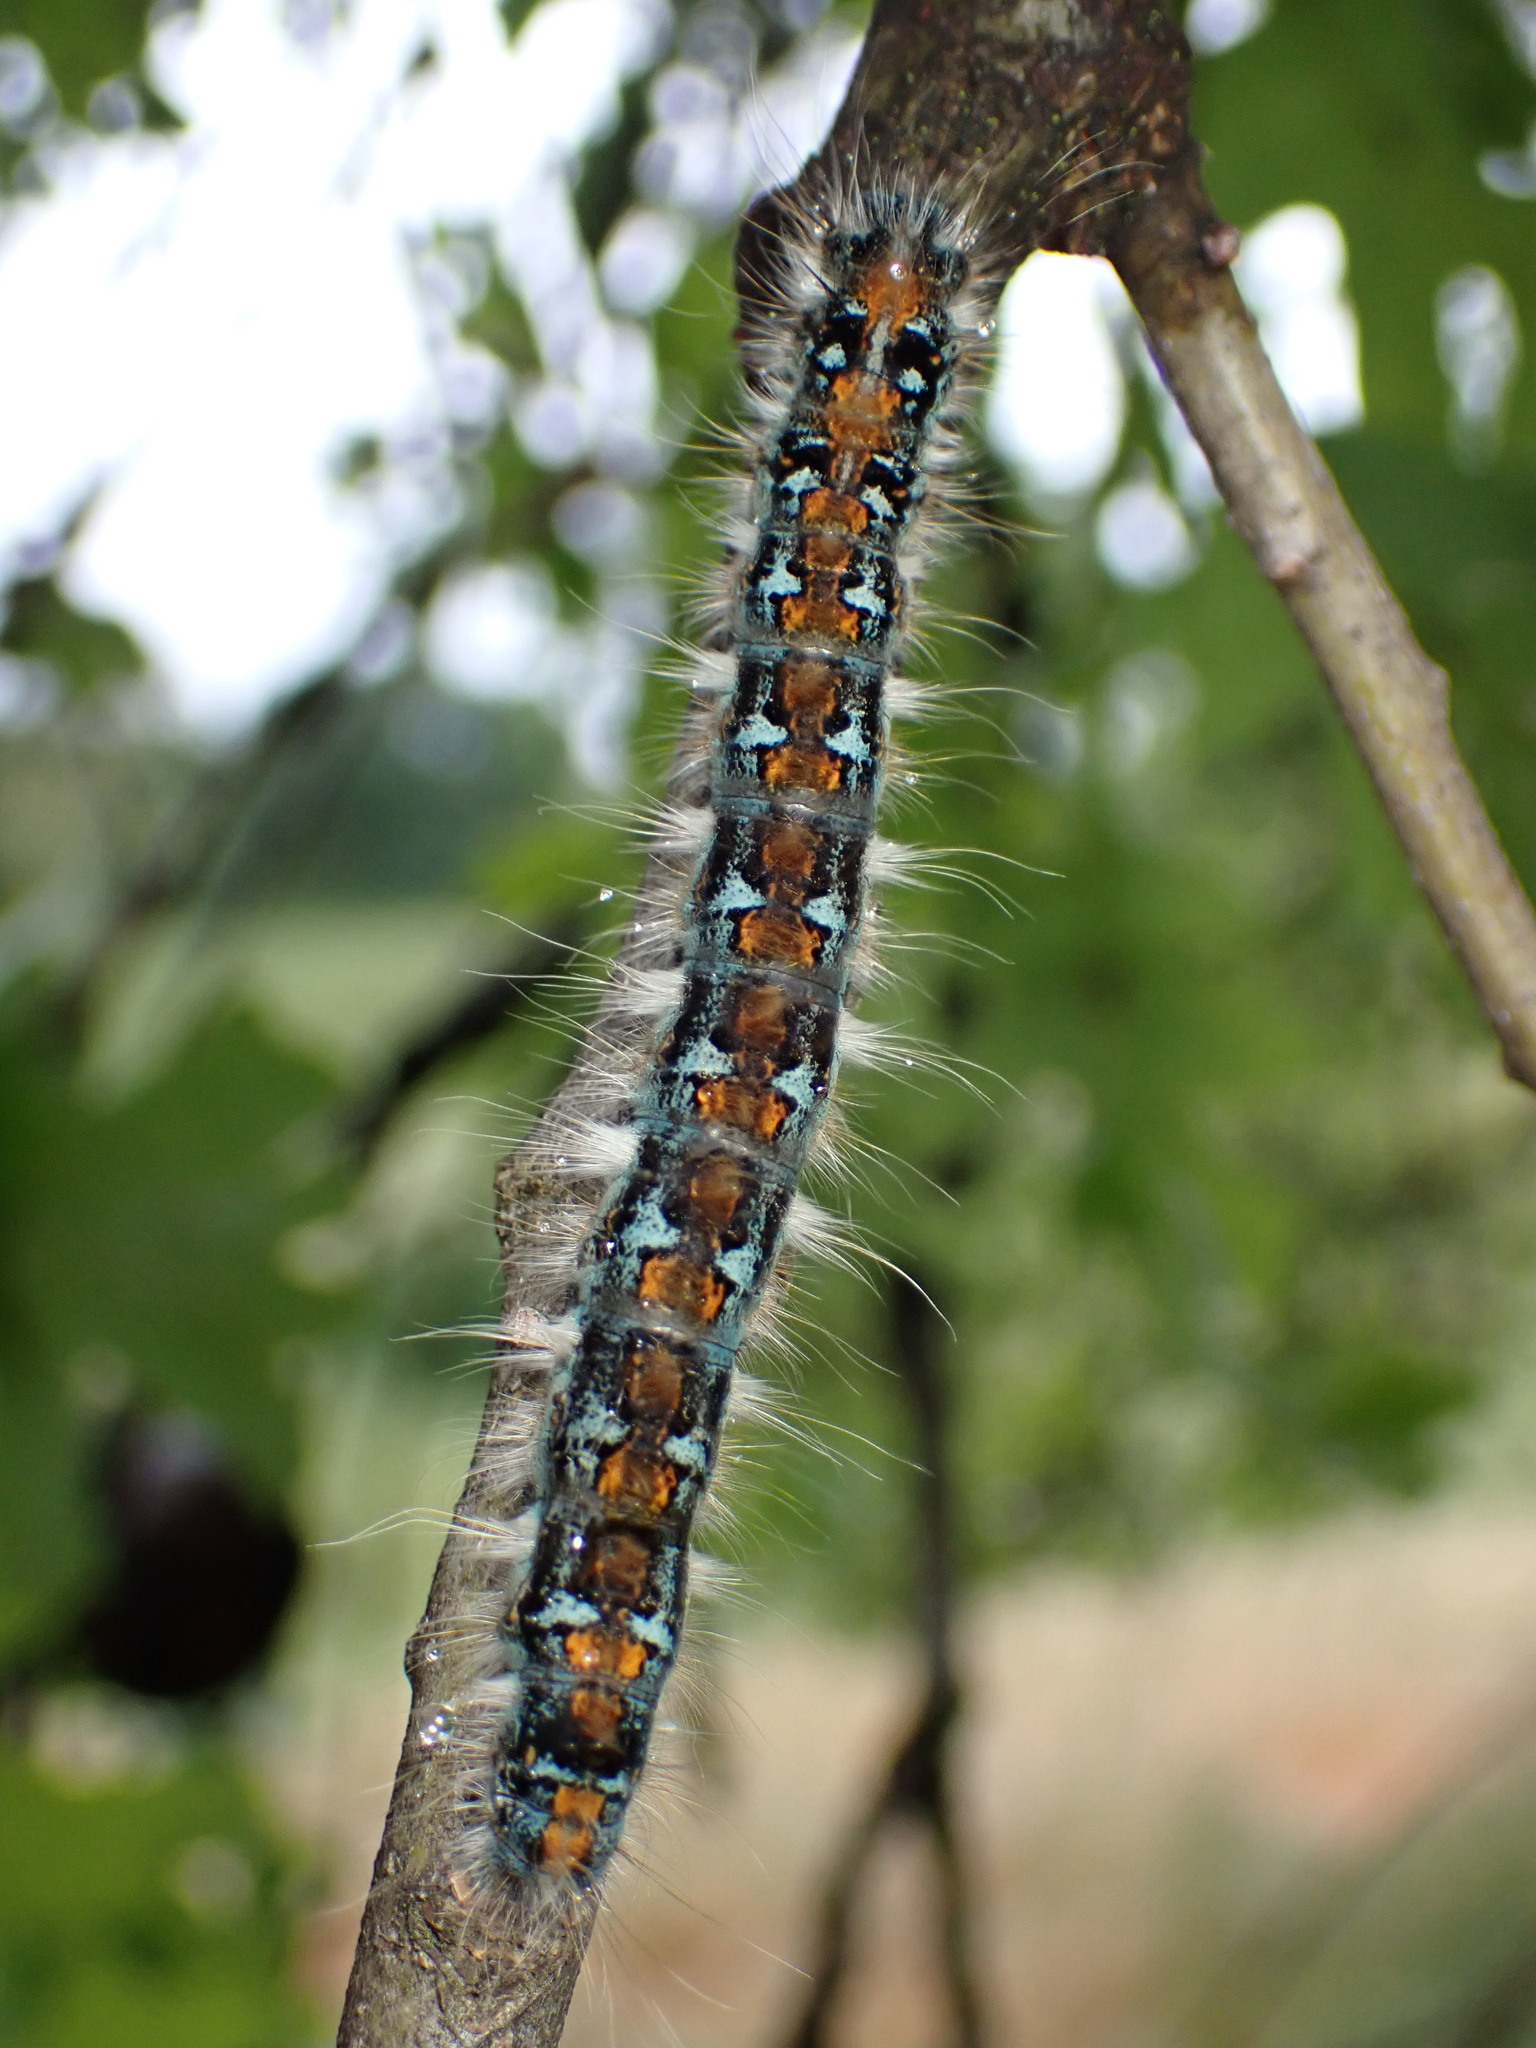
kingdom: Animalia
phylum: Arthropoda
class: Insecta
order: Lepidoptera
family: Lasiocampidae
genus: Malacosoma
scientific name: Malacosoma constricta
